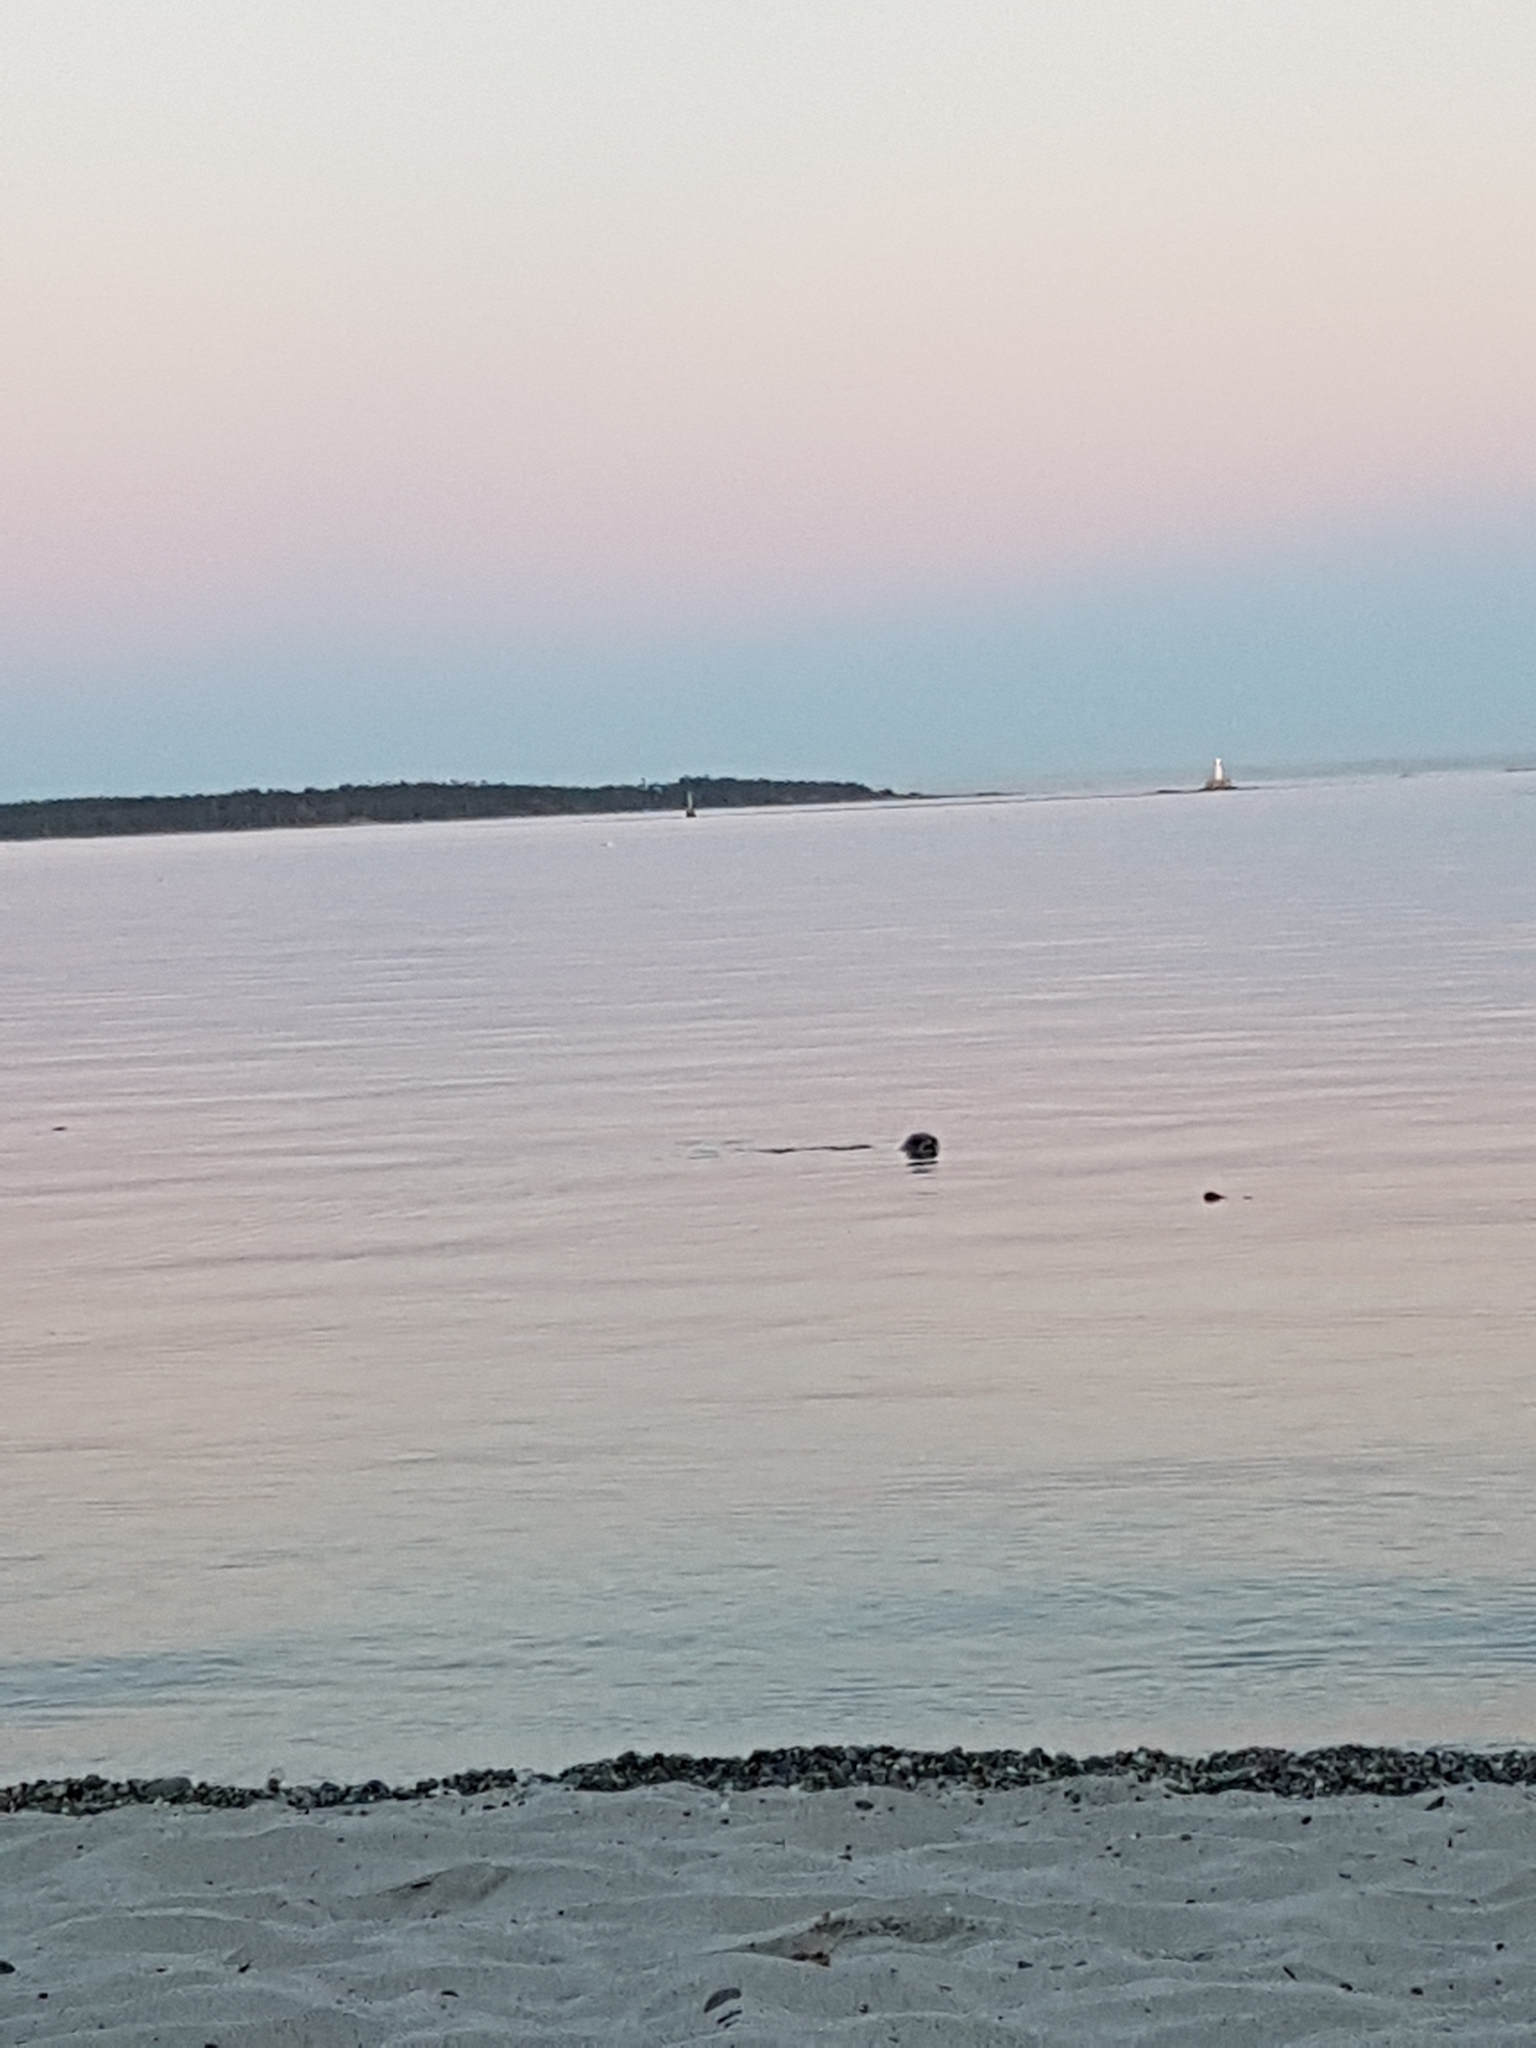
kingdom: Animalia
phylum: Chordata
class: Mammalia
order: Carnivora
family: Phocidae
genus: Phoca
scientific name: Phoca vitulina
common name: Harbor seal
